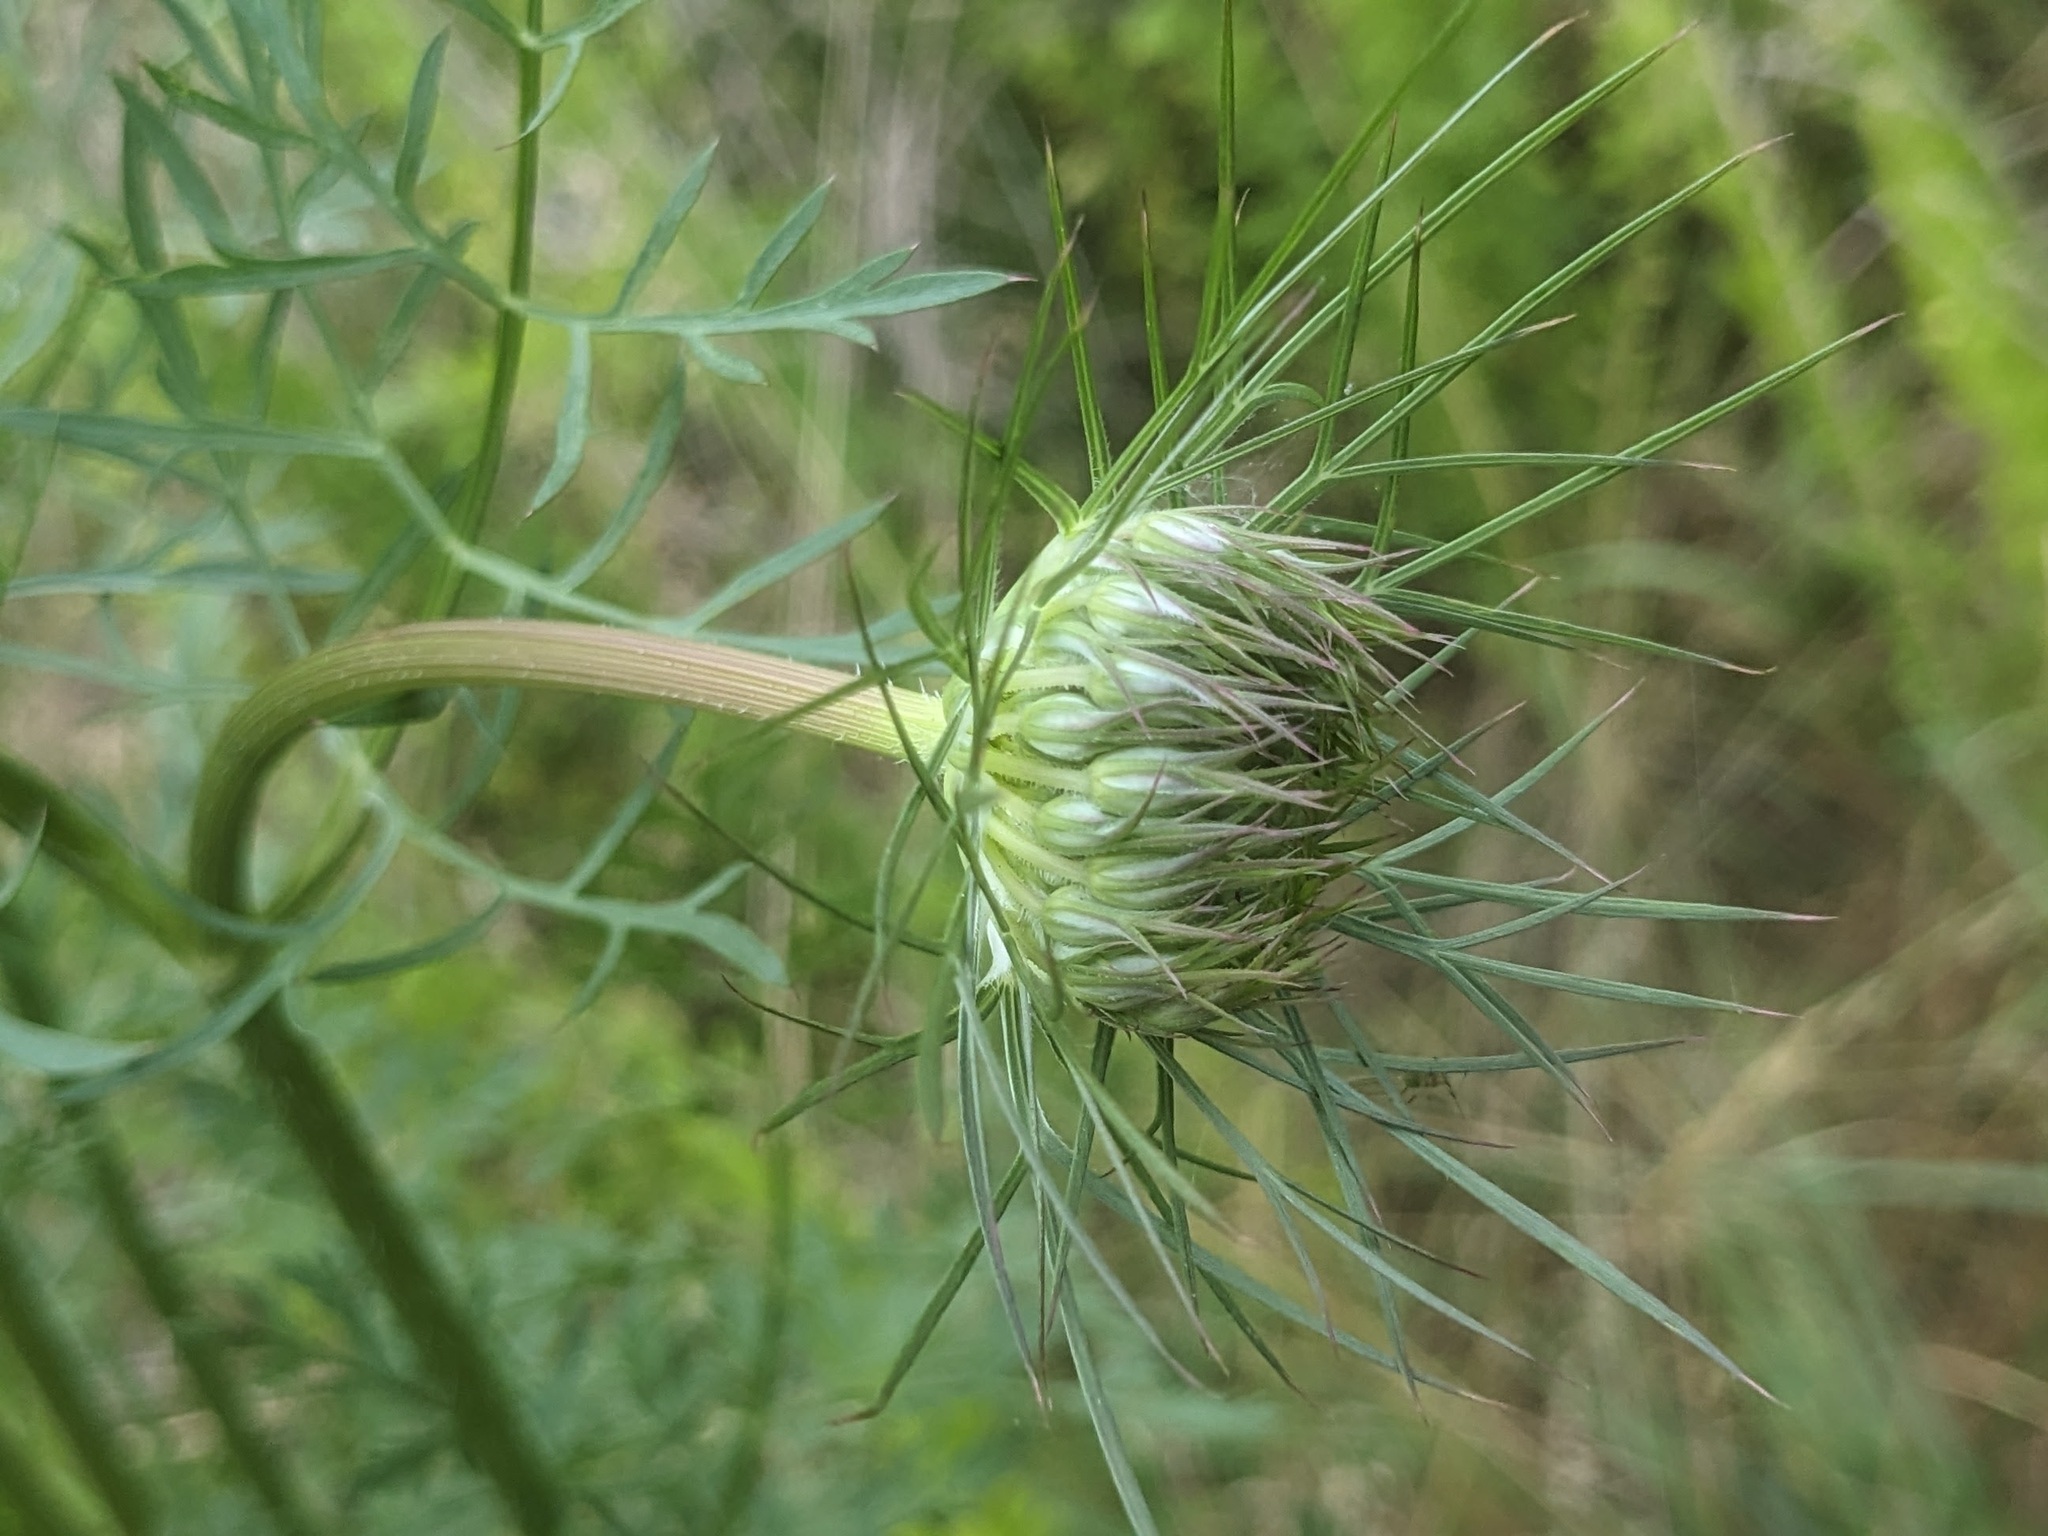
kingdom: Plantae
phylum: Tracheophyta
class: Magnoliopsida
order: Apiales
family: Apiaceae
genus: Daucus
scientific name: Daucus carota
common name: Wild carrot
